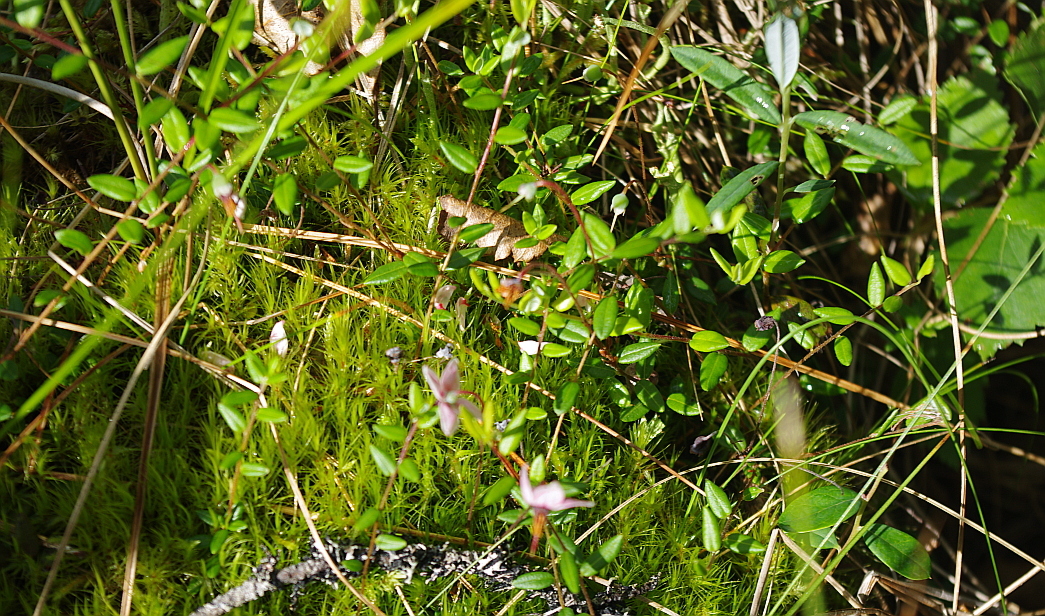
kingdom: Plantae
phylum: Tracheophyta
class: Magnoliopsida
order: Ericales
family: Ericaceae
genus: Vaccinium
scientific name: Vaccinium oxycoccos
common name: Cranberry
